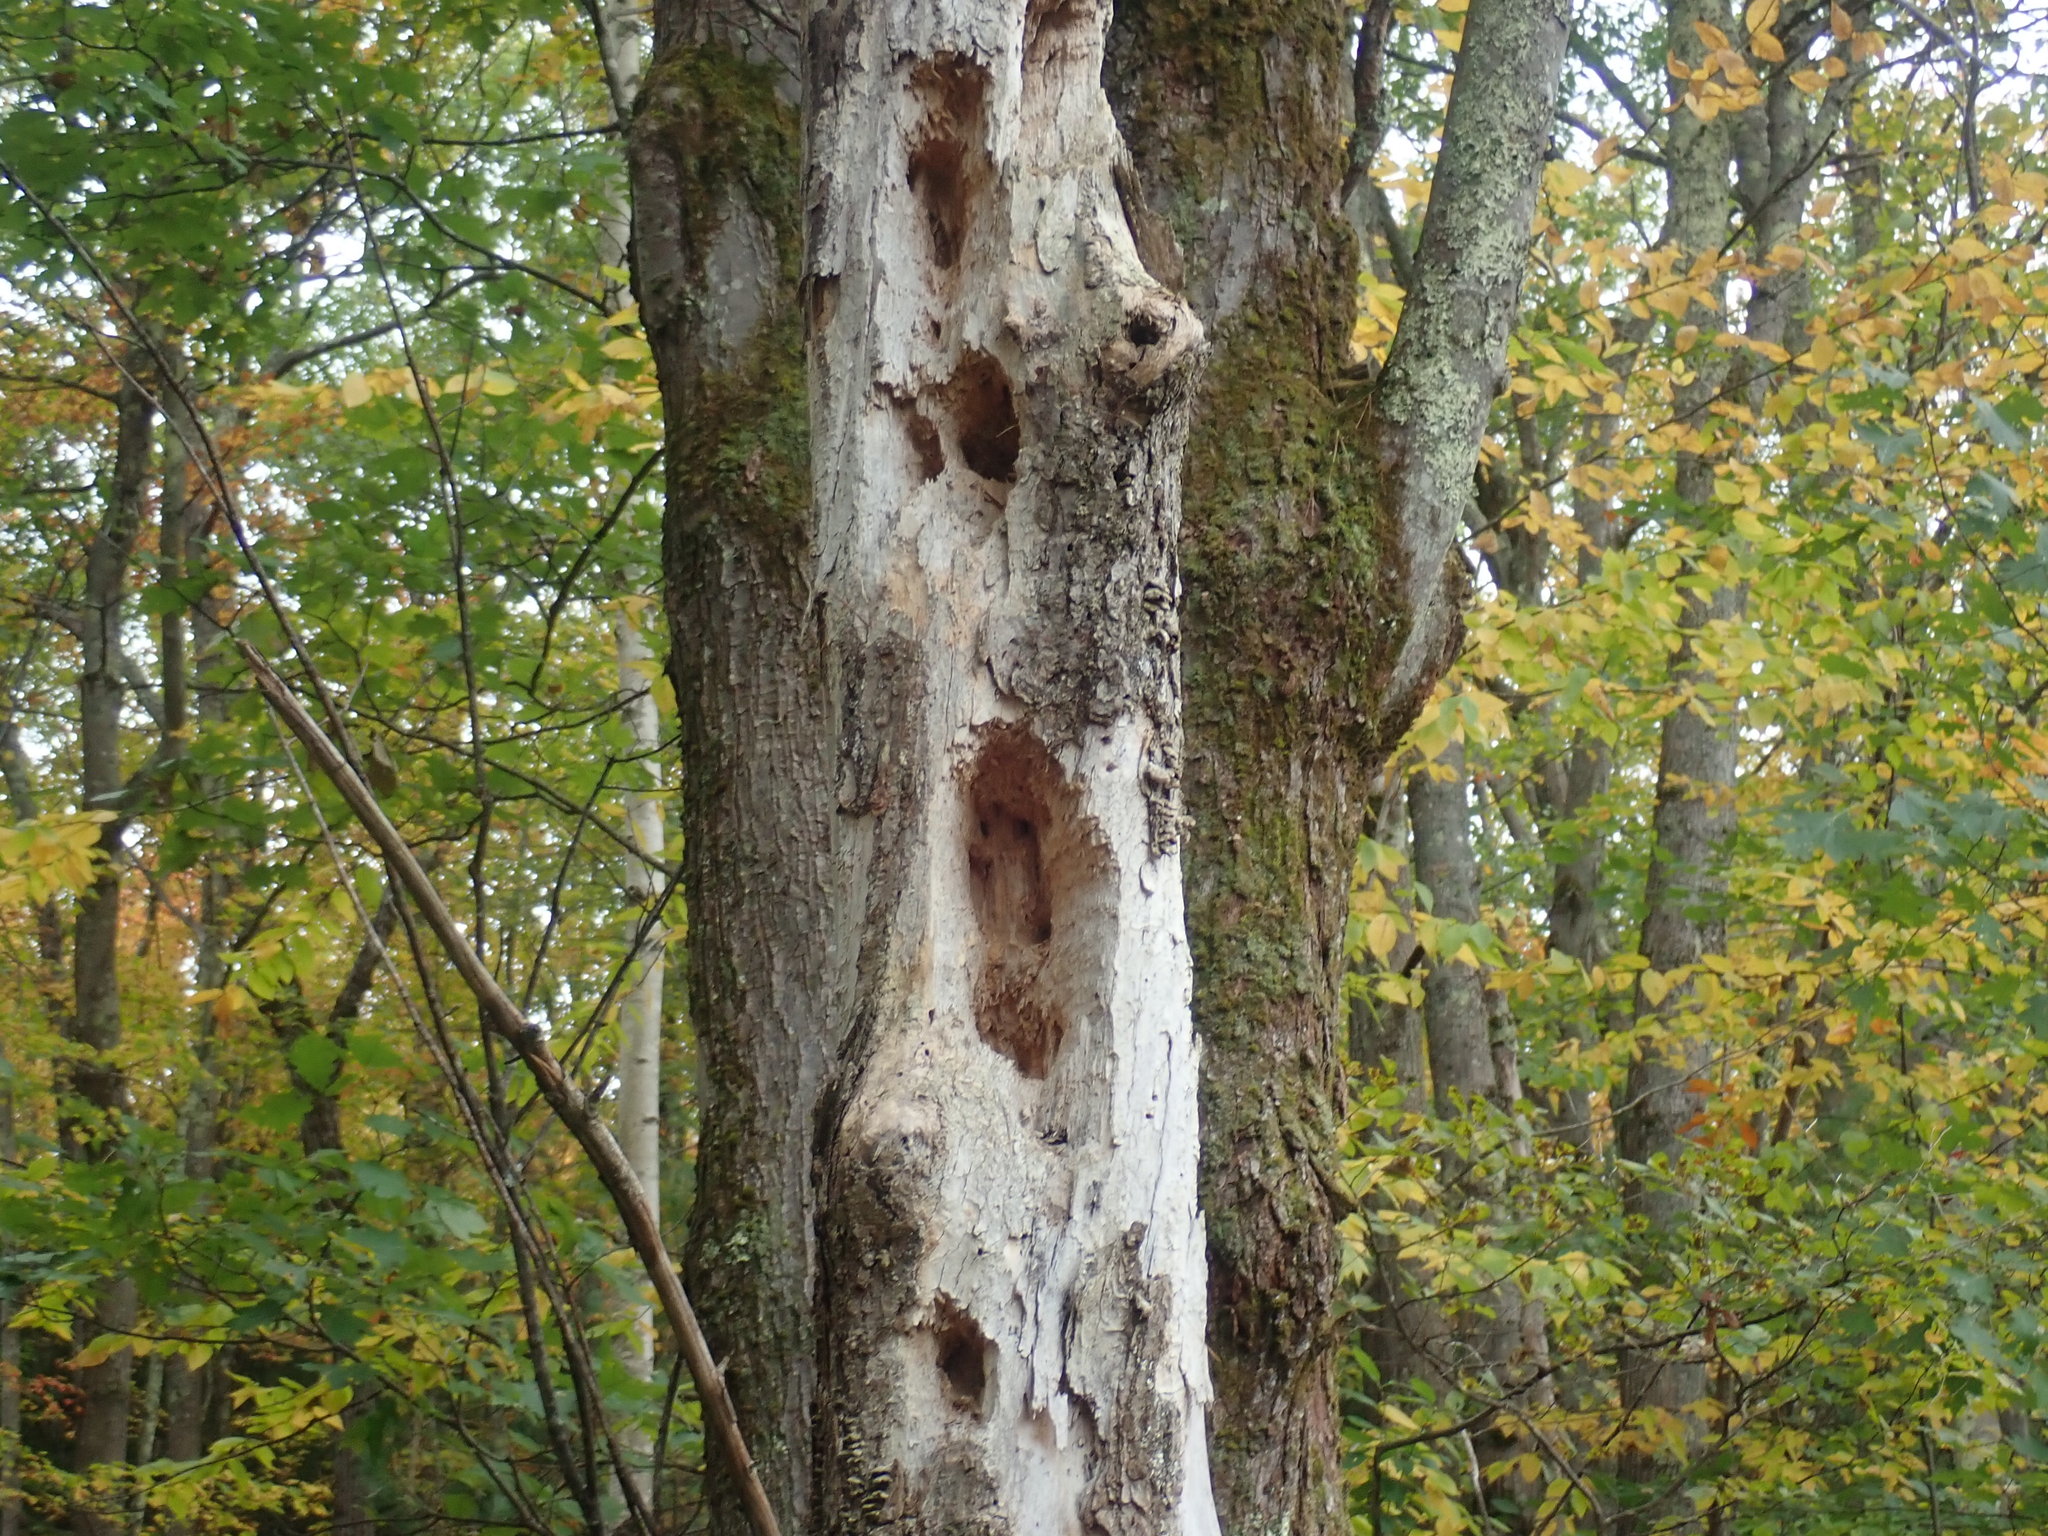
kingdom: Animalia
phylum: Chordata
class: Aves
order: Piciformes
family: Picidae
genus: Dryocopus
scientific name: Dryocopus pileatus
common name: Pileated woodpecker
